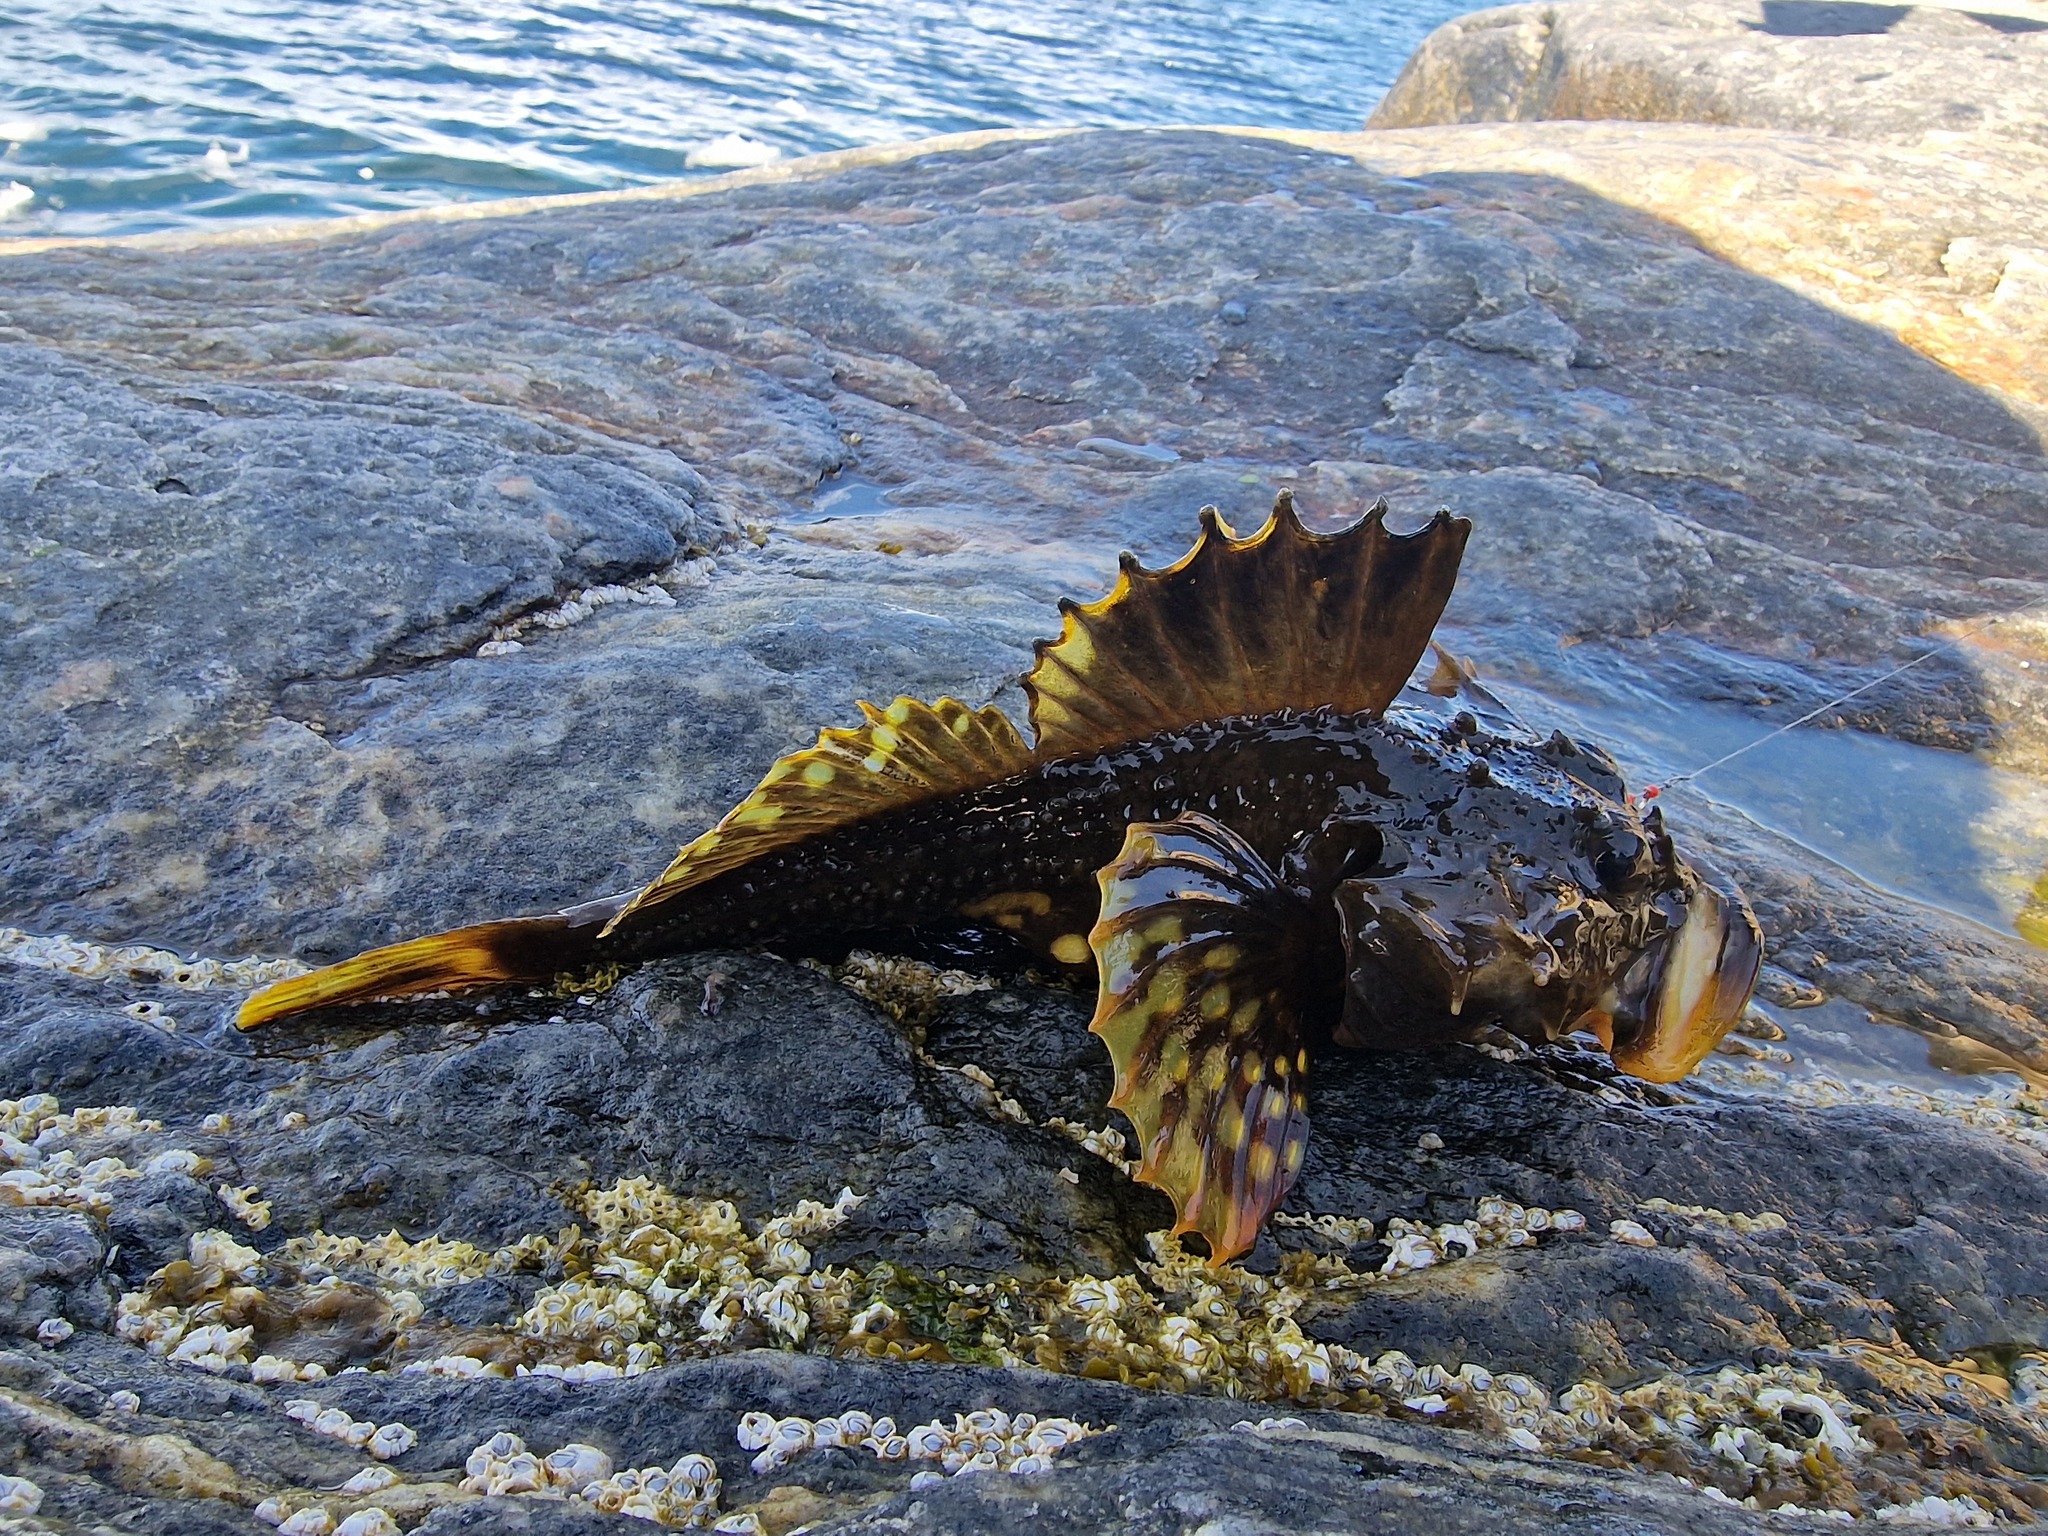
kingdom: Animalia
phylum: Chordata
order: Scorpaeniformes
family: Cottidae
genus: Myoxocephalus
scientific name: Myoxocephalus scorpius
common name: Shorthorn sculpin
